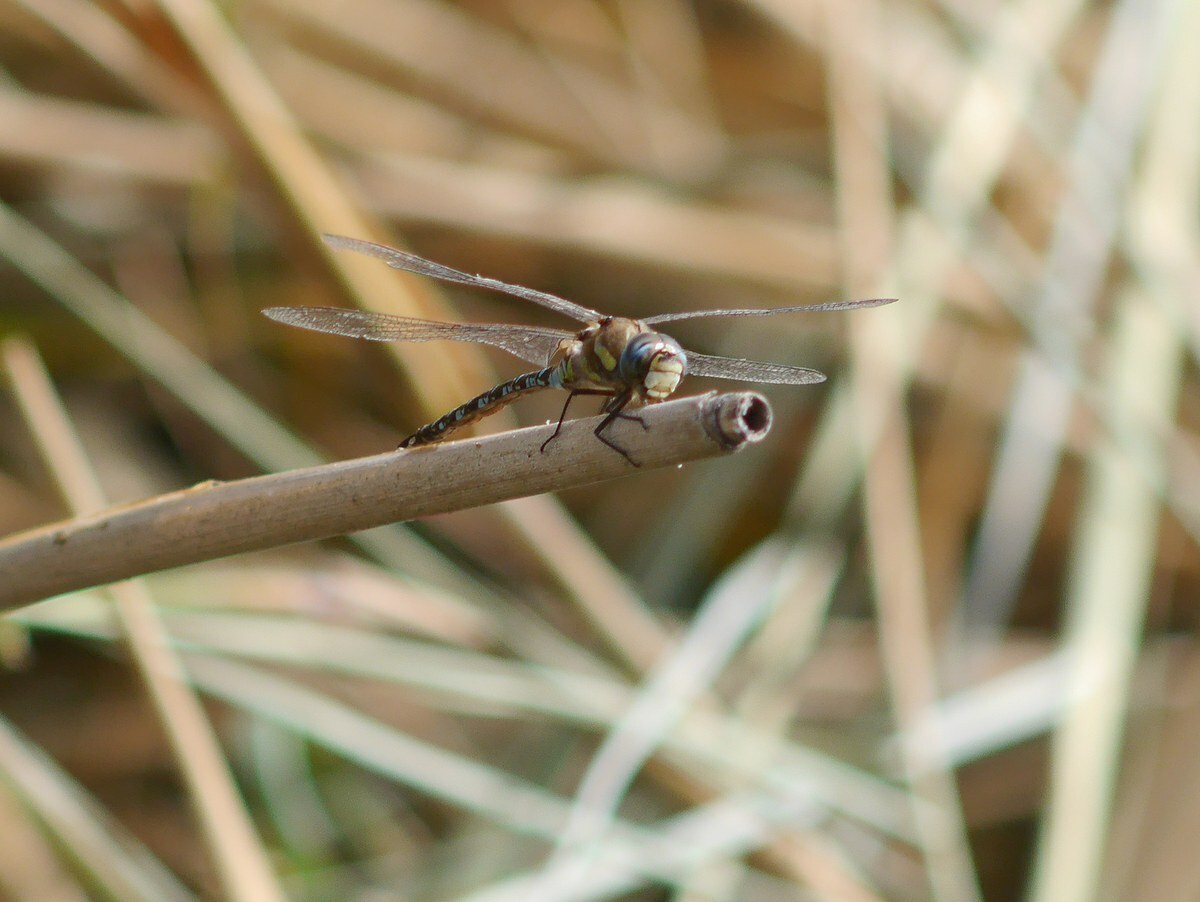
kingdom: Animalia
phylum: Arthropoda
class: Insecta
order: Odonata
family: Aeshnidae
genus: Aeshna
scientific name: Aeshna mixta
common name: Migrant hawker
